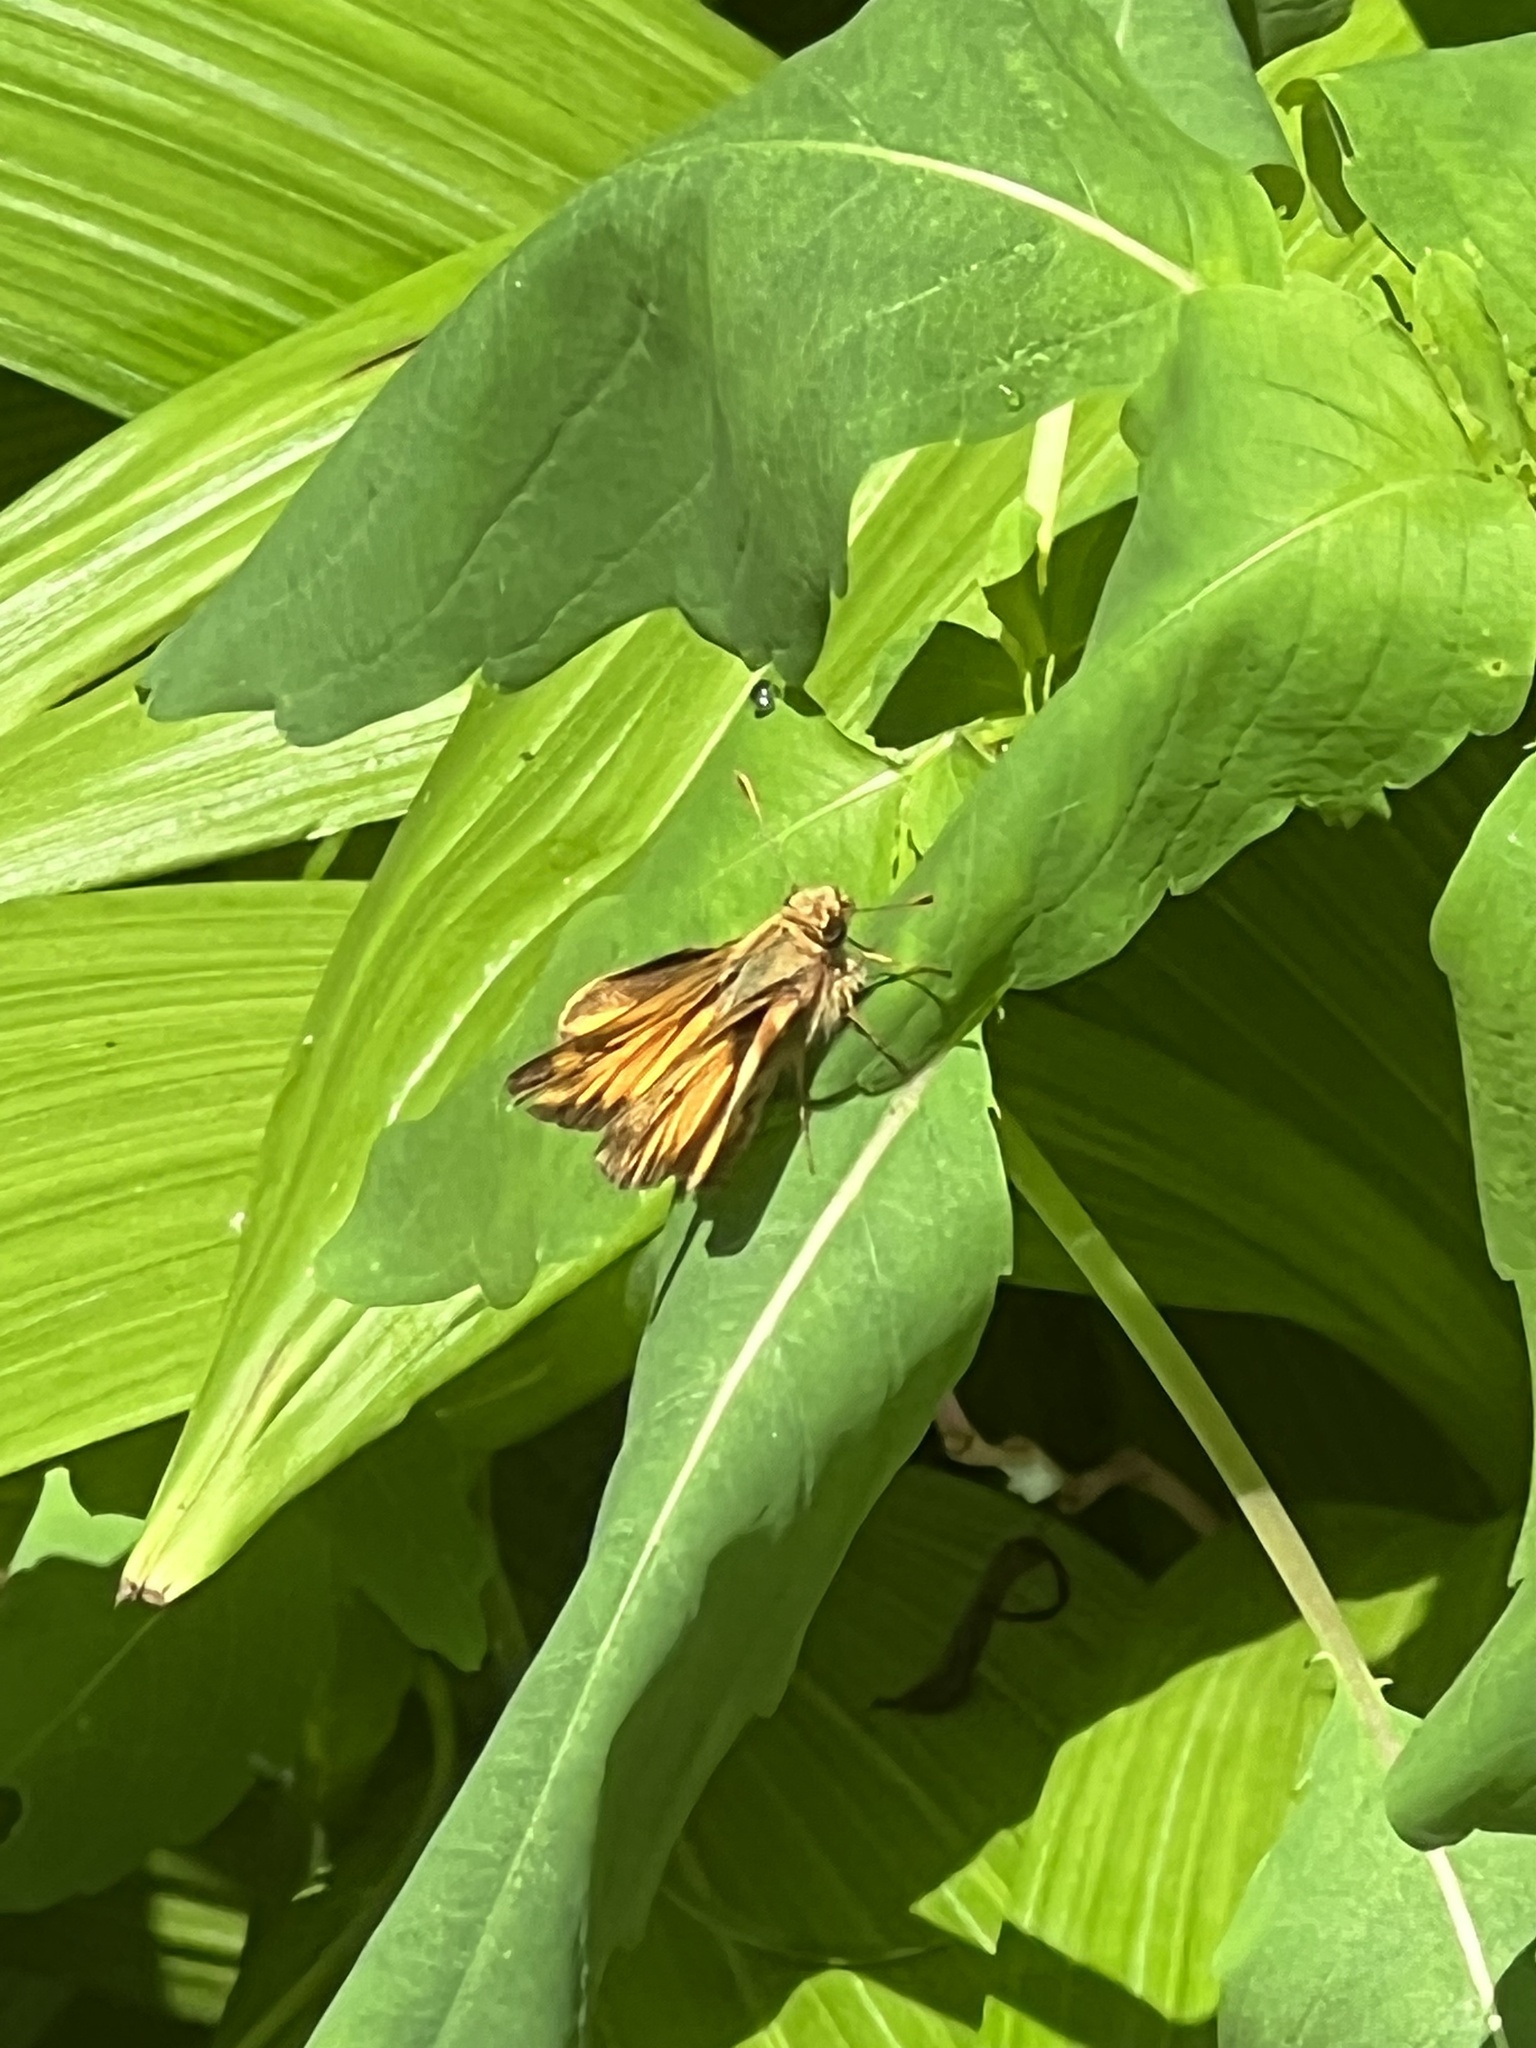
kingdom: Animalia
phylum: Arthropoda
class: Insecta
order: Lepidoptera
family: Hesperiidae
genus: Lon
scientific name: Lon zabulon
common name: Zabulon skipper
